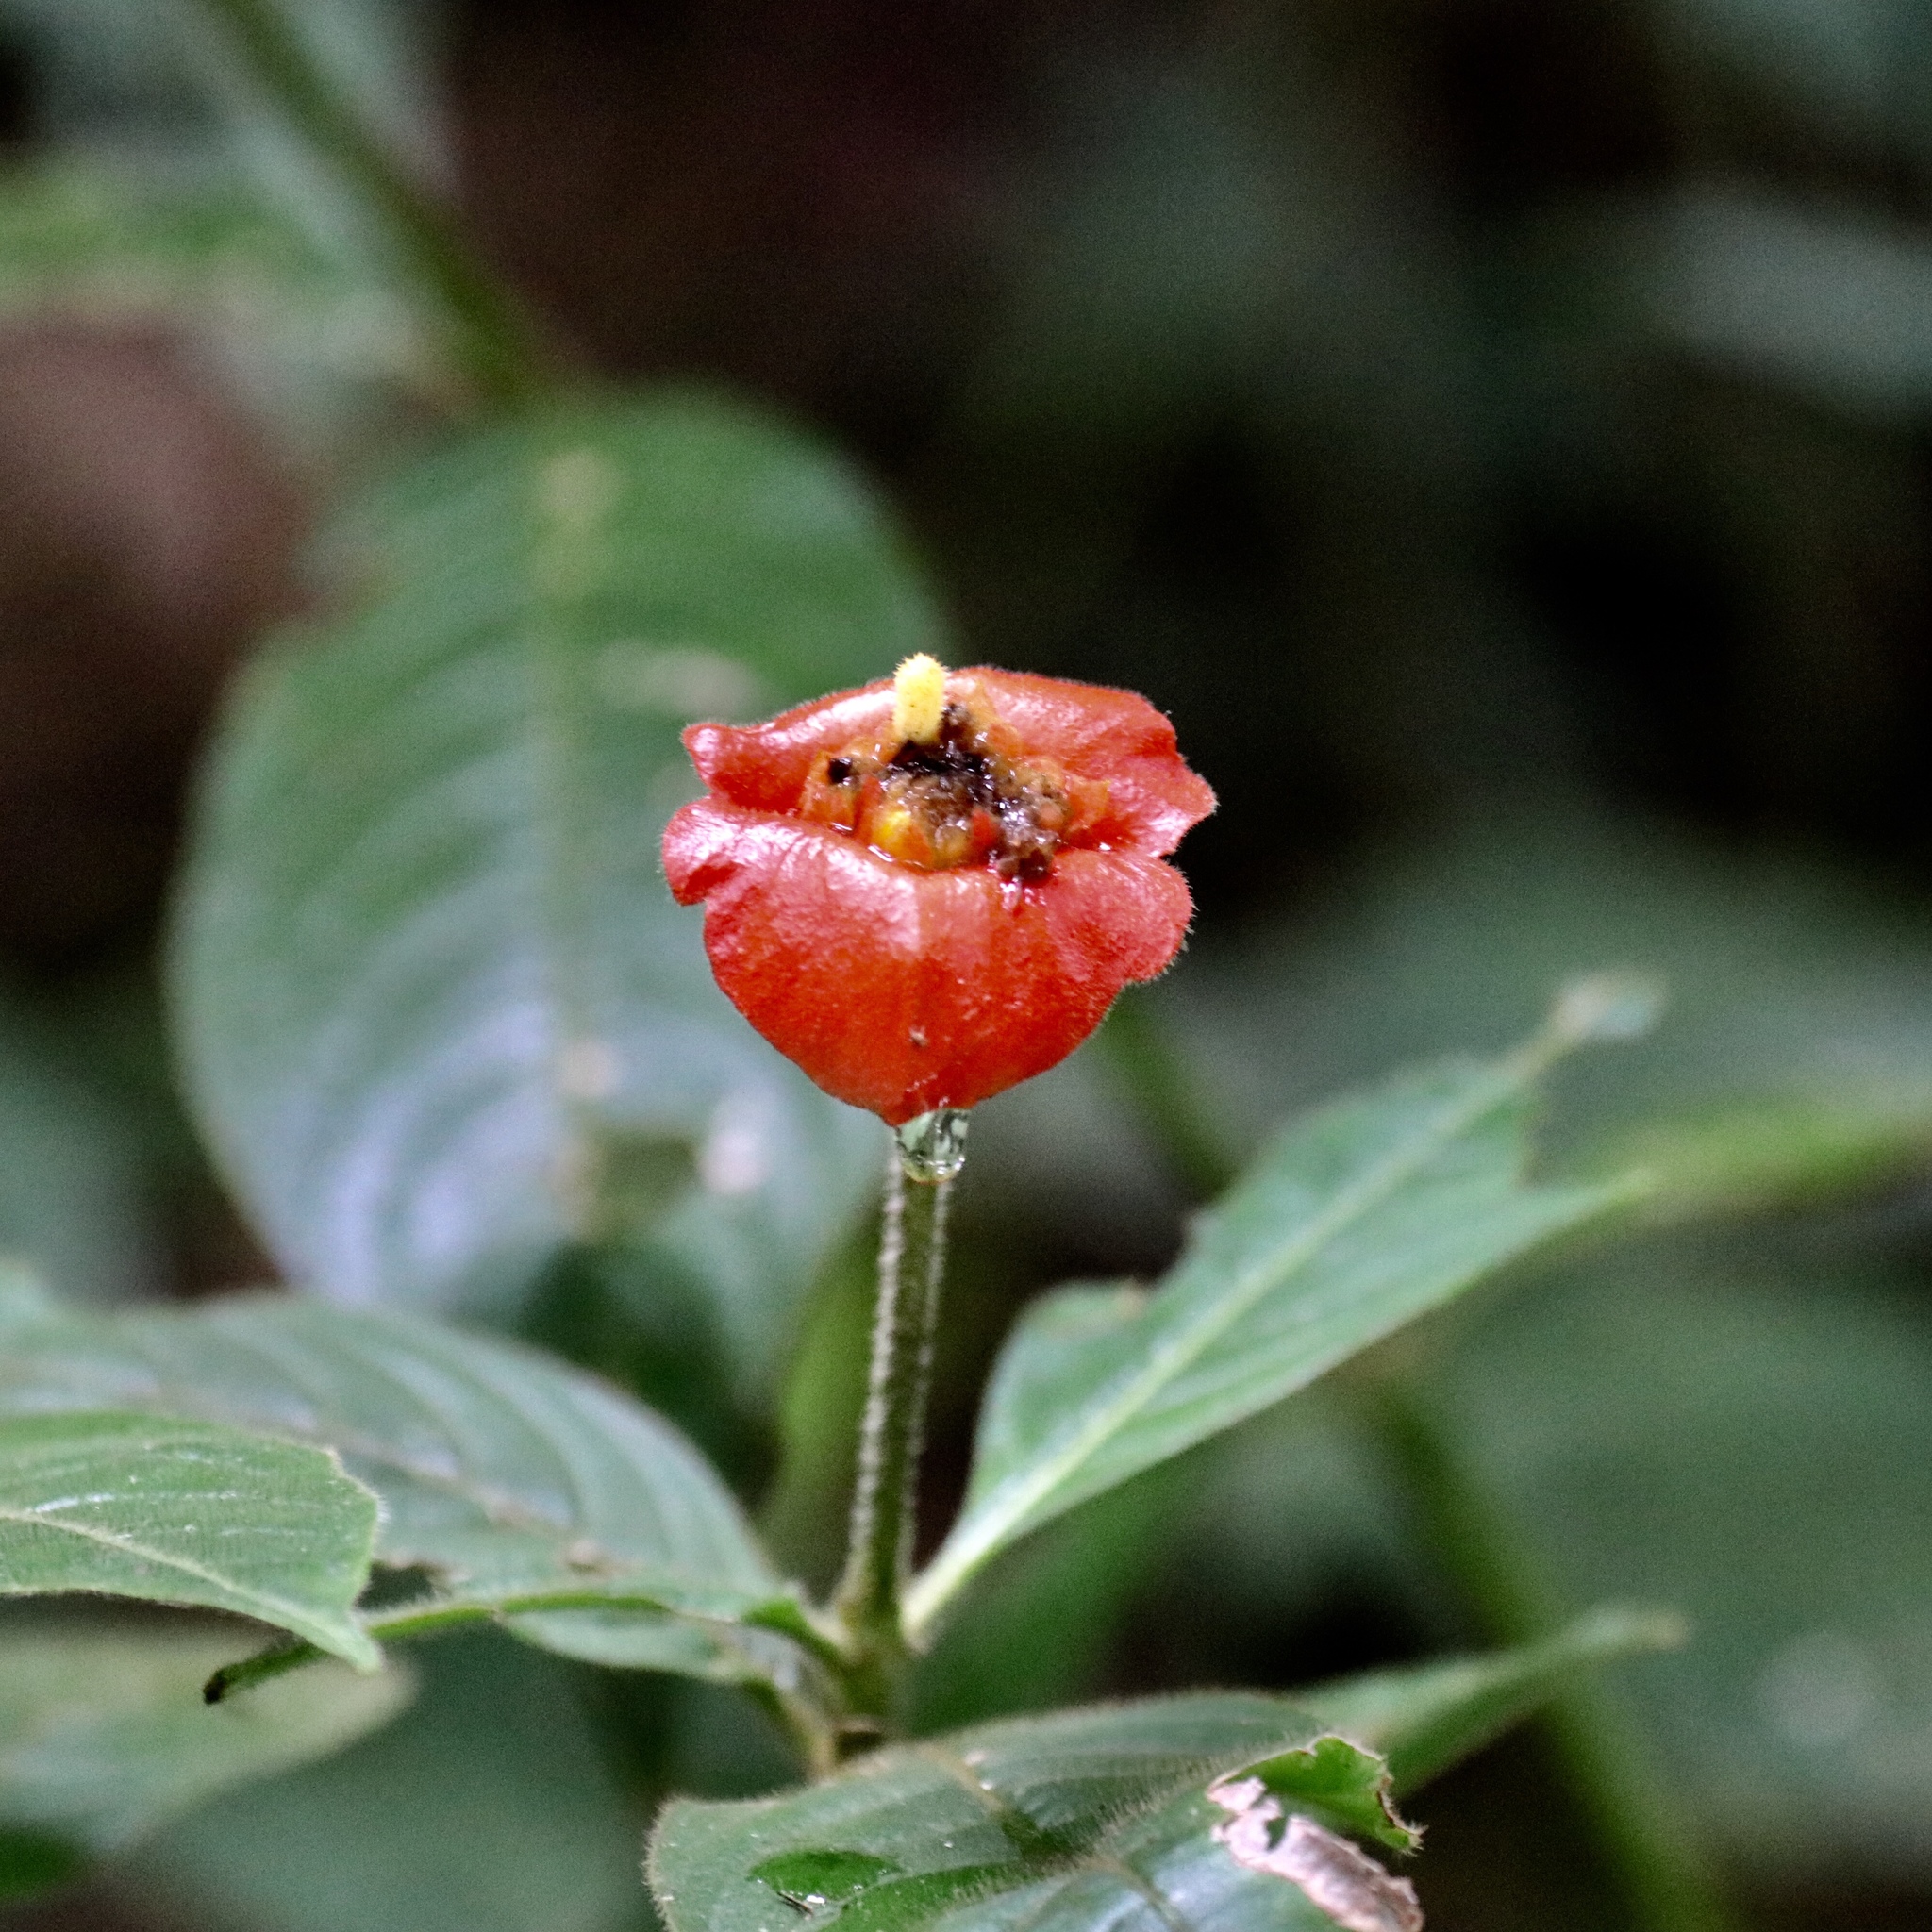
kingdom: Plantae
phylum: Tracheophyta
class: Magnoliopsida
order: Gentianales
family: Rubiaceae
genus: Palicourea
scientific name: Palicourea tomentosa
